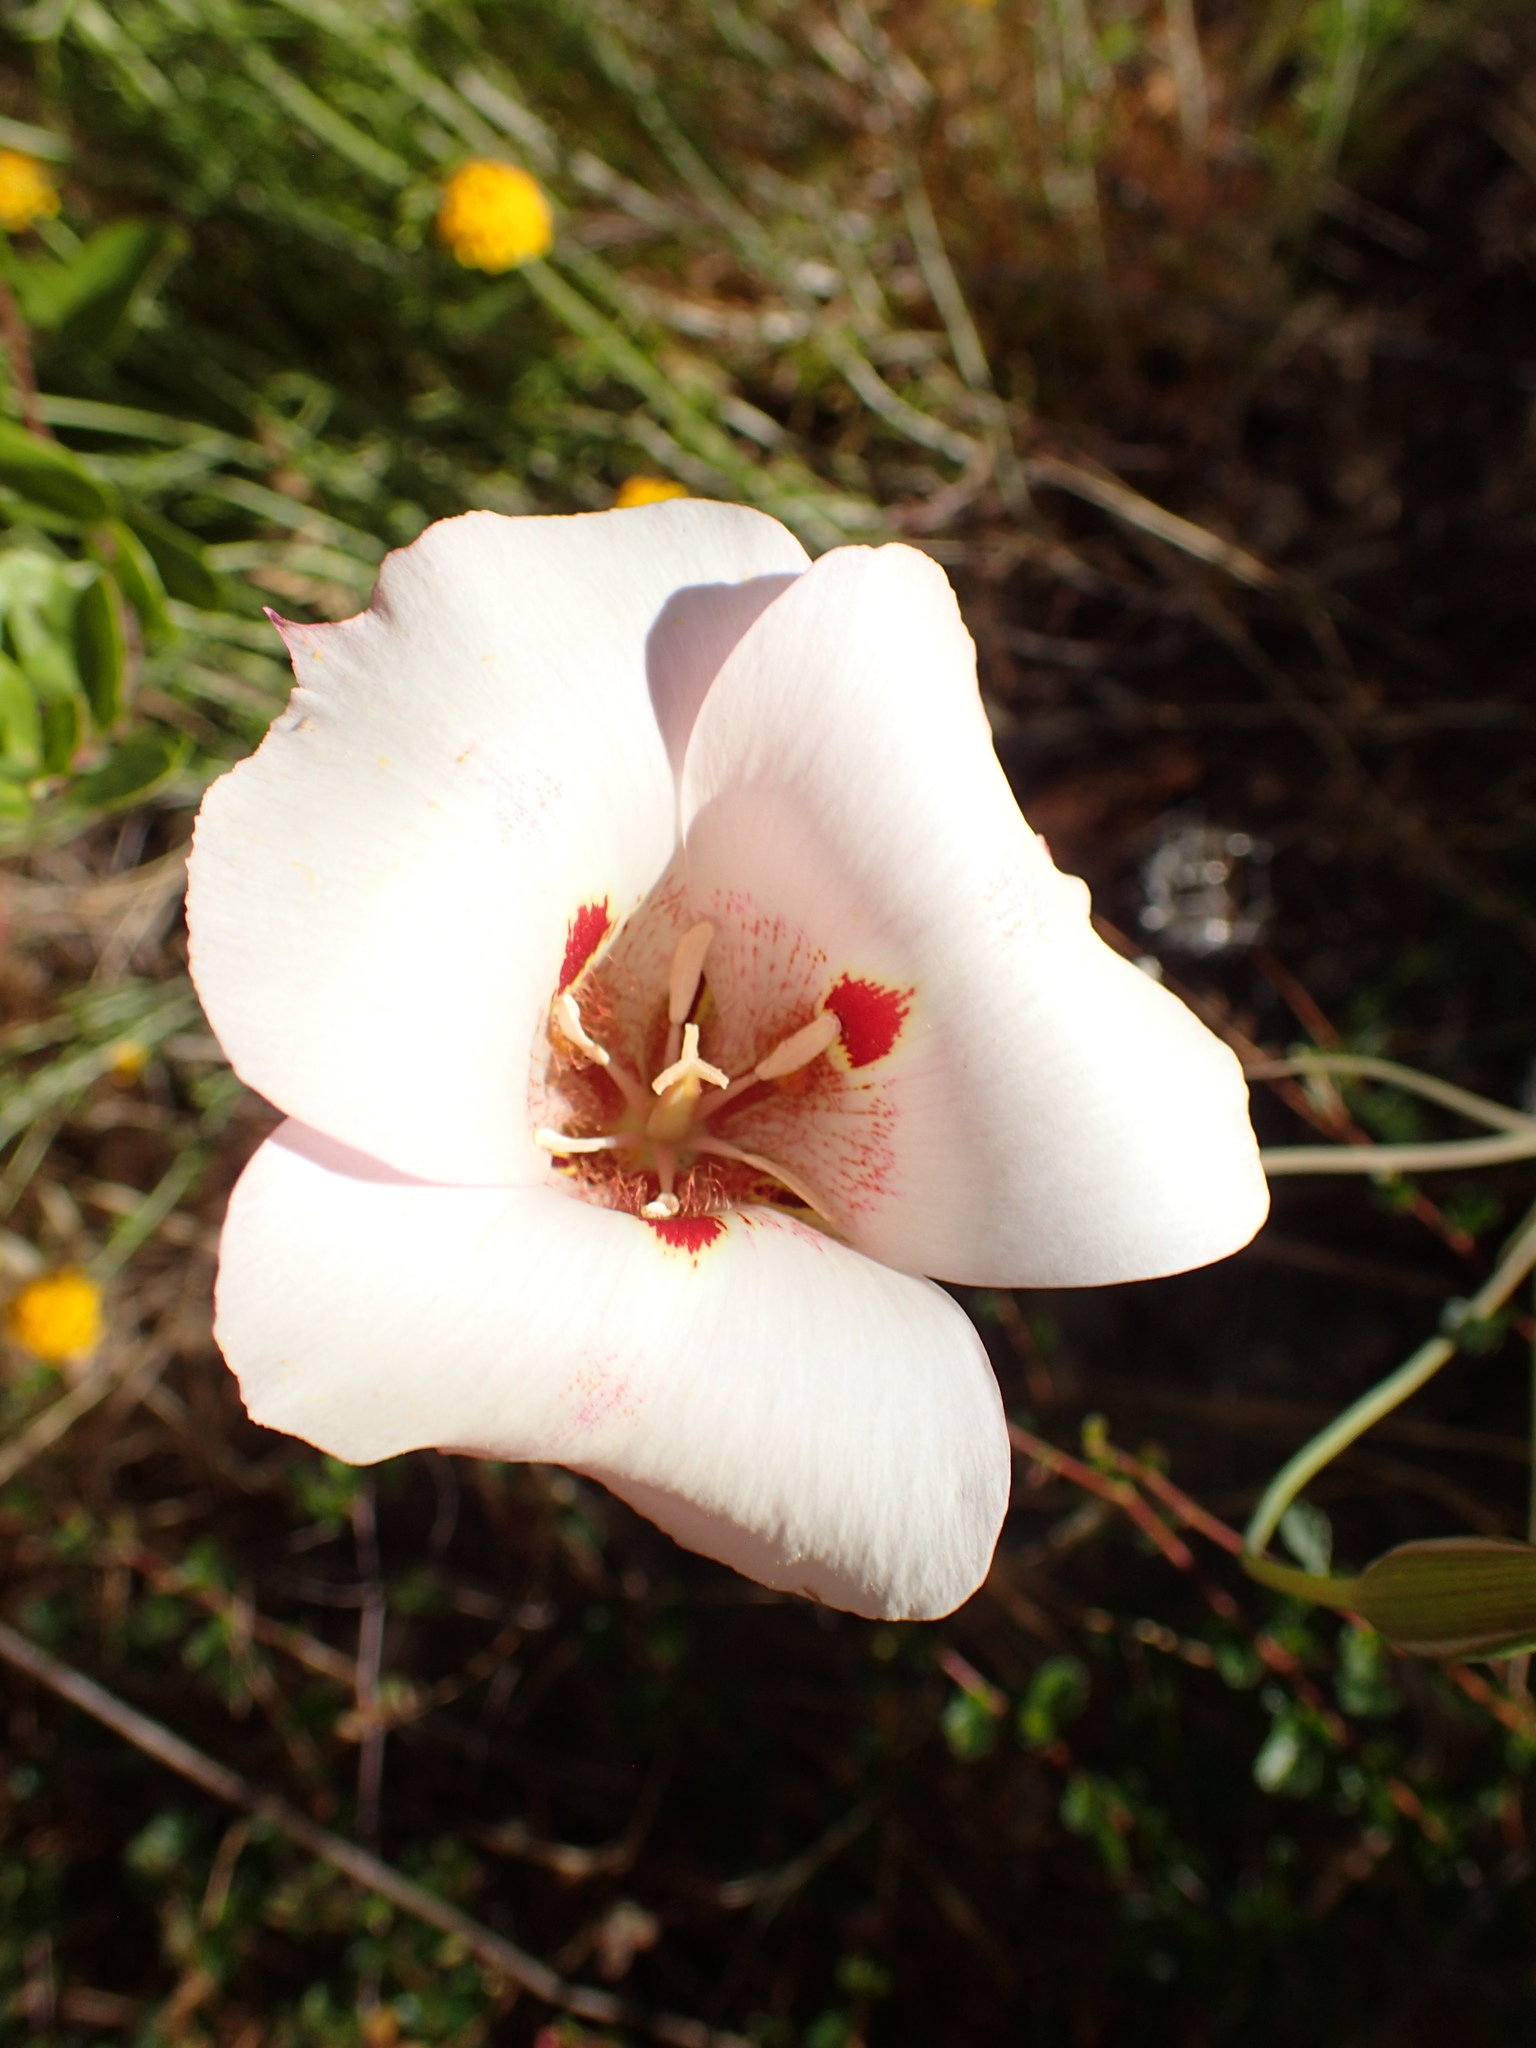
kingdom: Plantae
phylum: Tracheophyta
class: Liliopsida
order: Liliales
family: Liliaceae
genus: Calochortus
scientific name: Calochortus venustus
